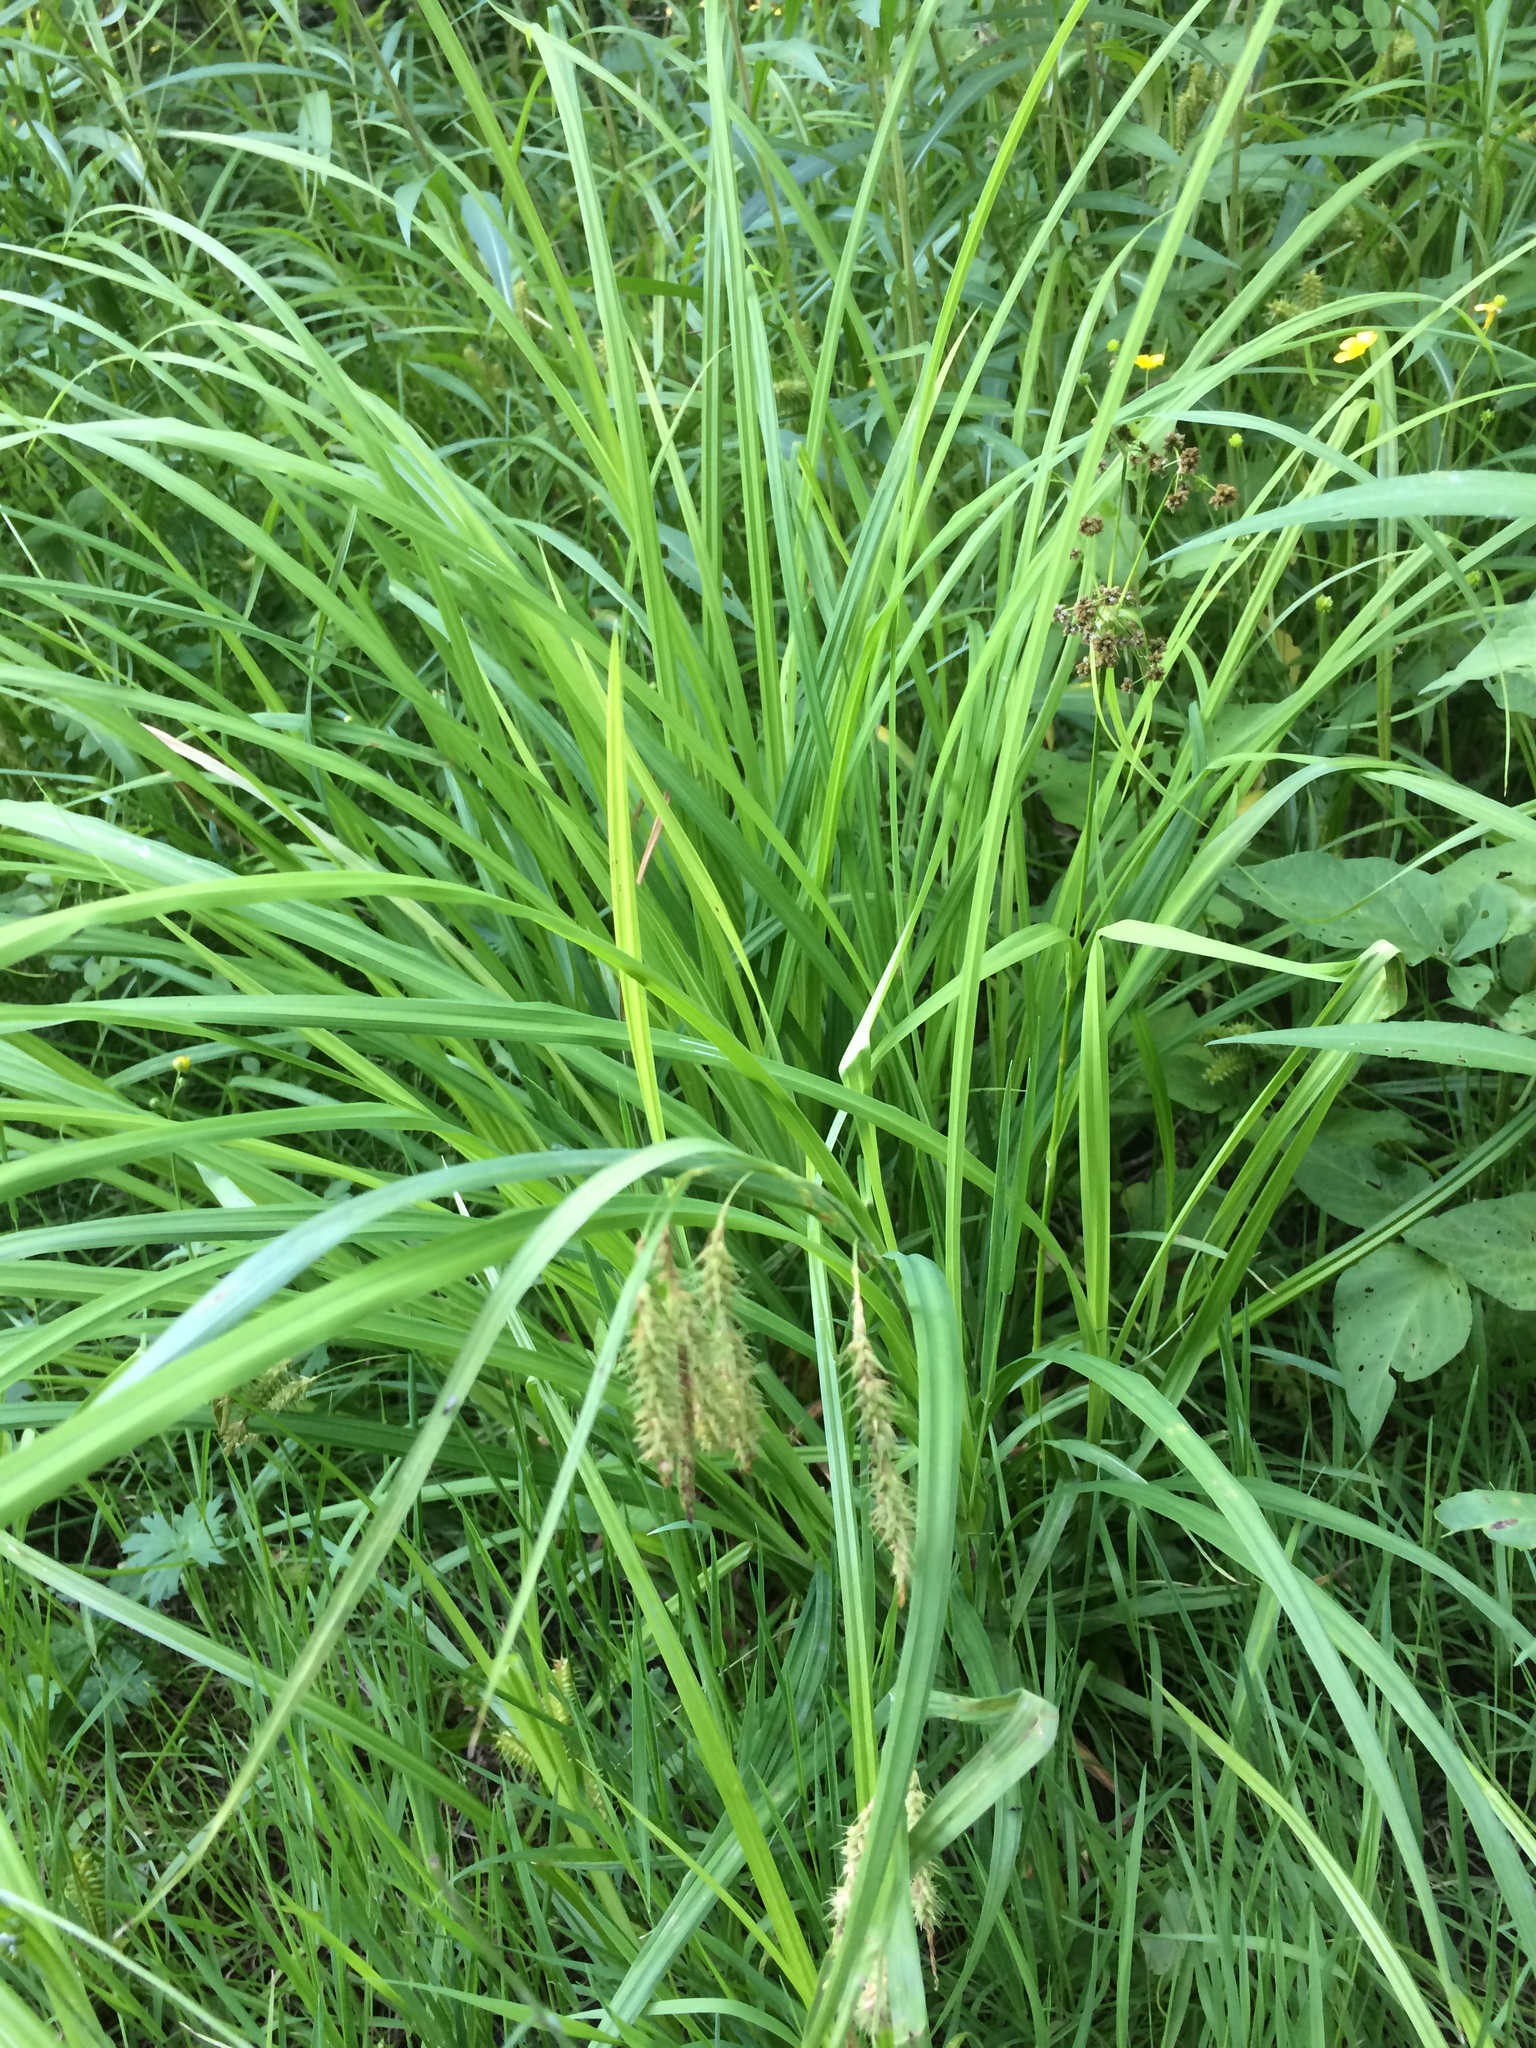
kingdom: Plantae
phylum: Tracheophyta
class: Liliopsida
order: Poales
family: Cyperaceae
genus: Carex
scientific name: Carex gynandra
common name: Nodding sedge
